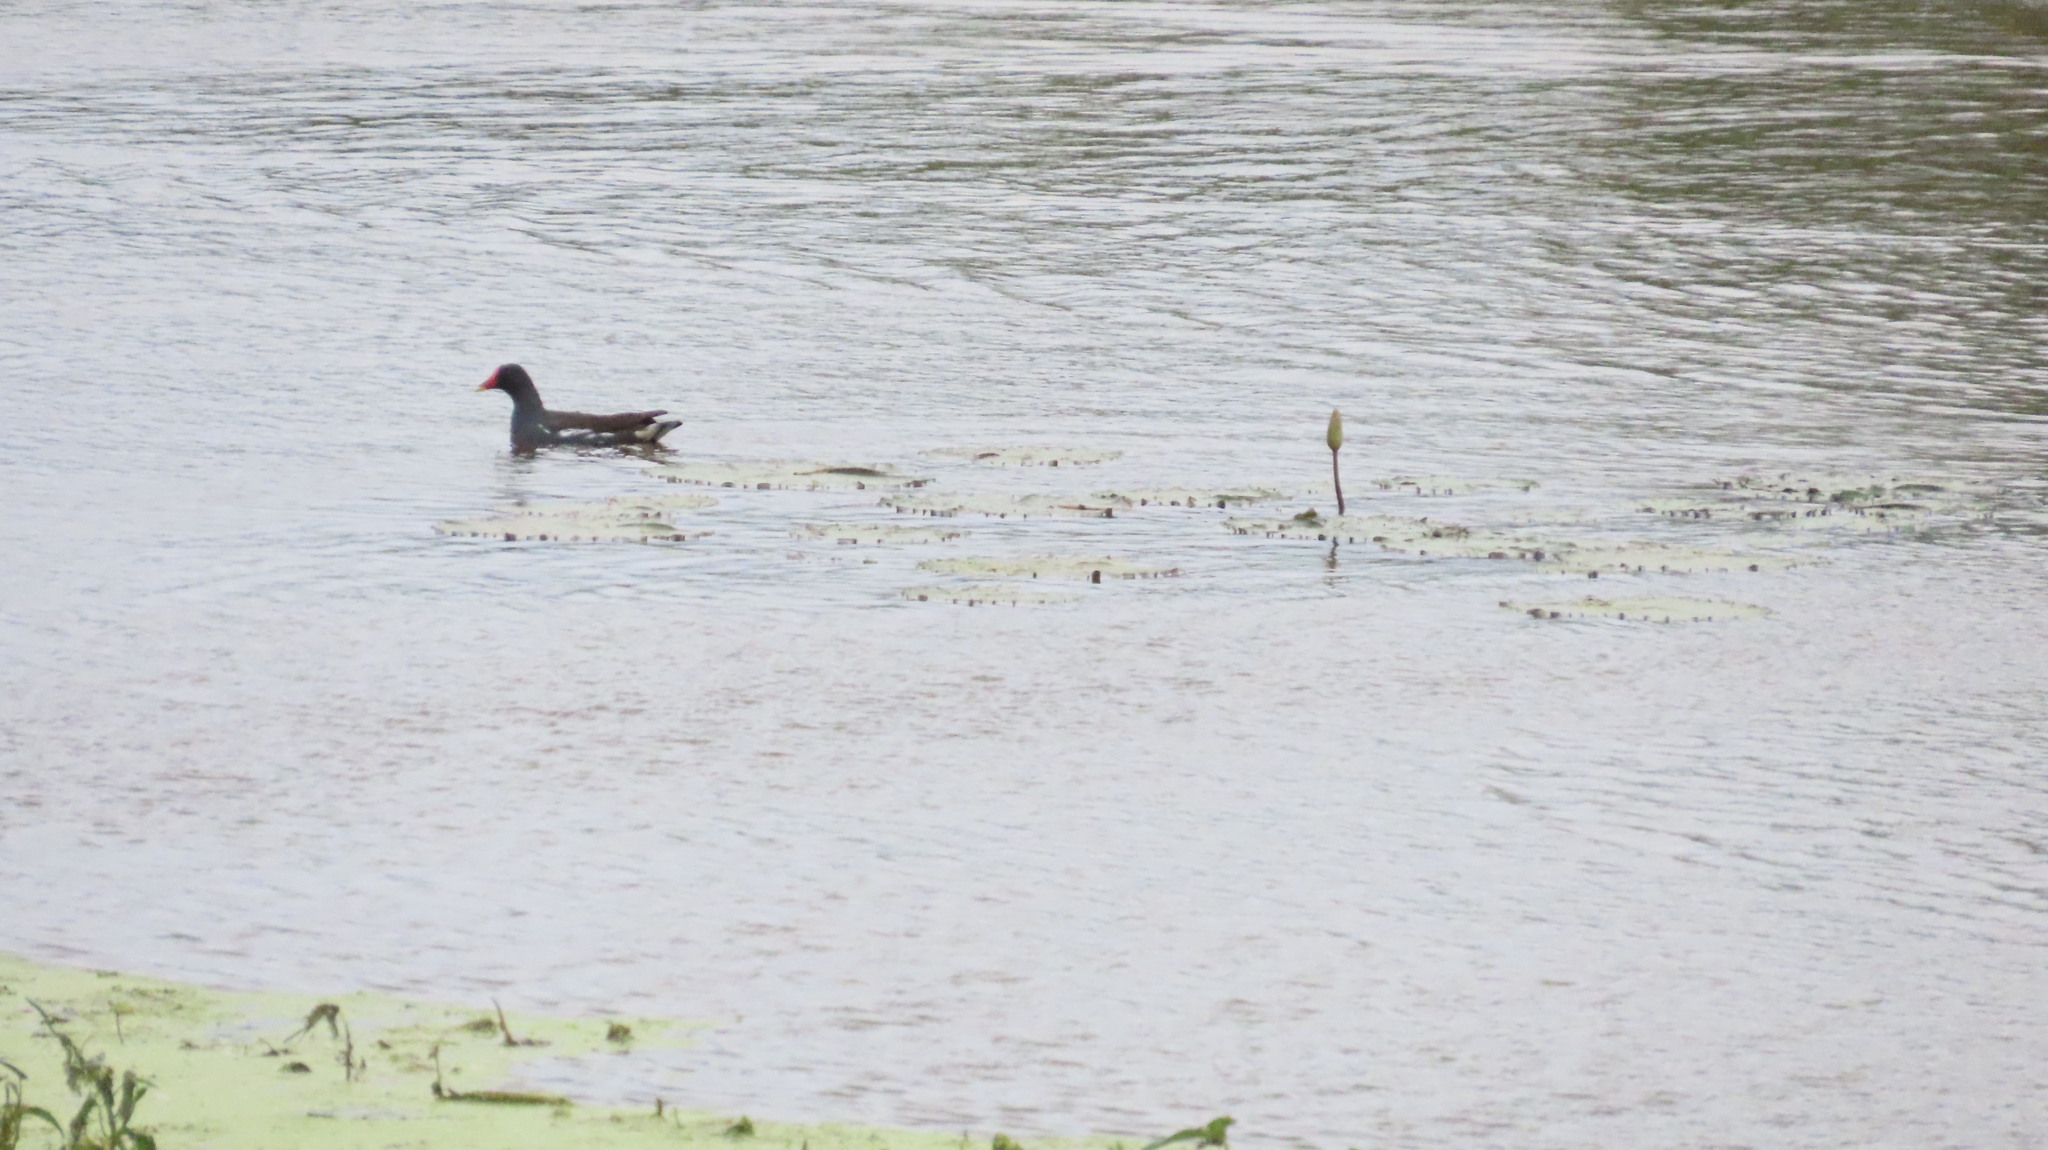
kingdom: Animalia
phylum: Chordata
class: Aves
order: Gruiformes
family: Rallidae
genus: Gallinula
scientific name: Gallinula chloropus
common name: Common moorhen
